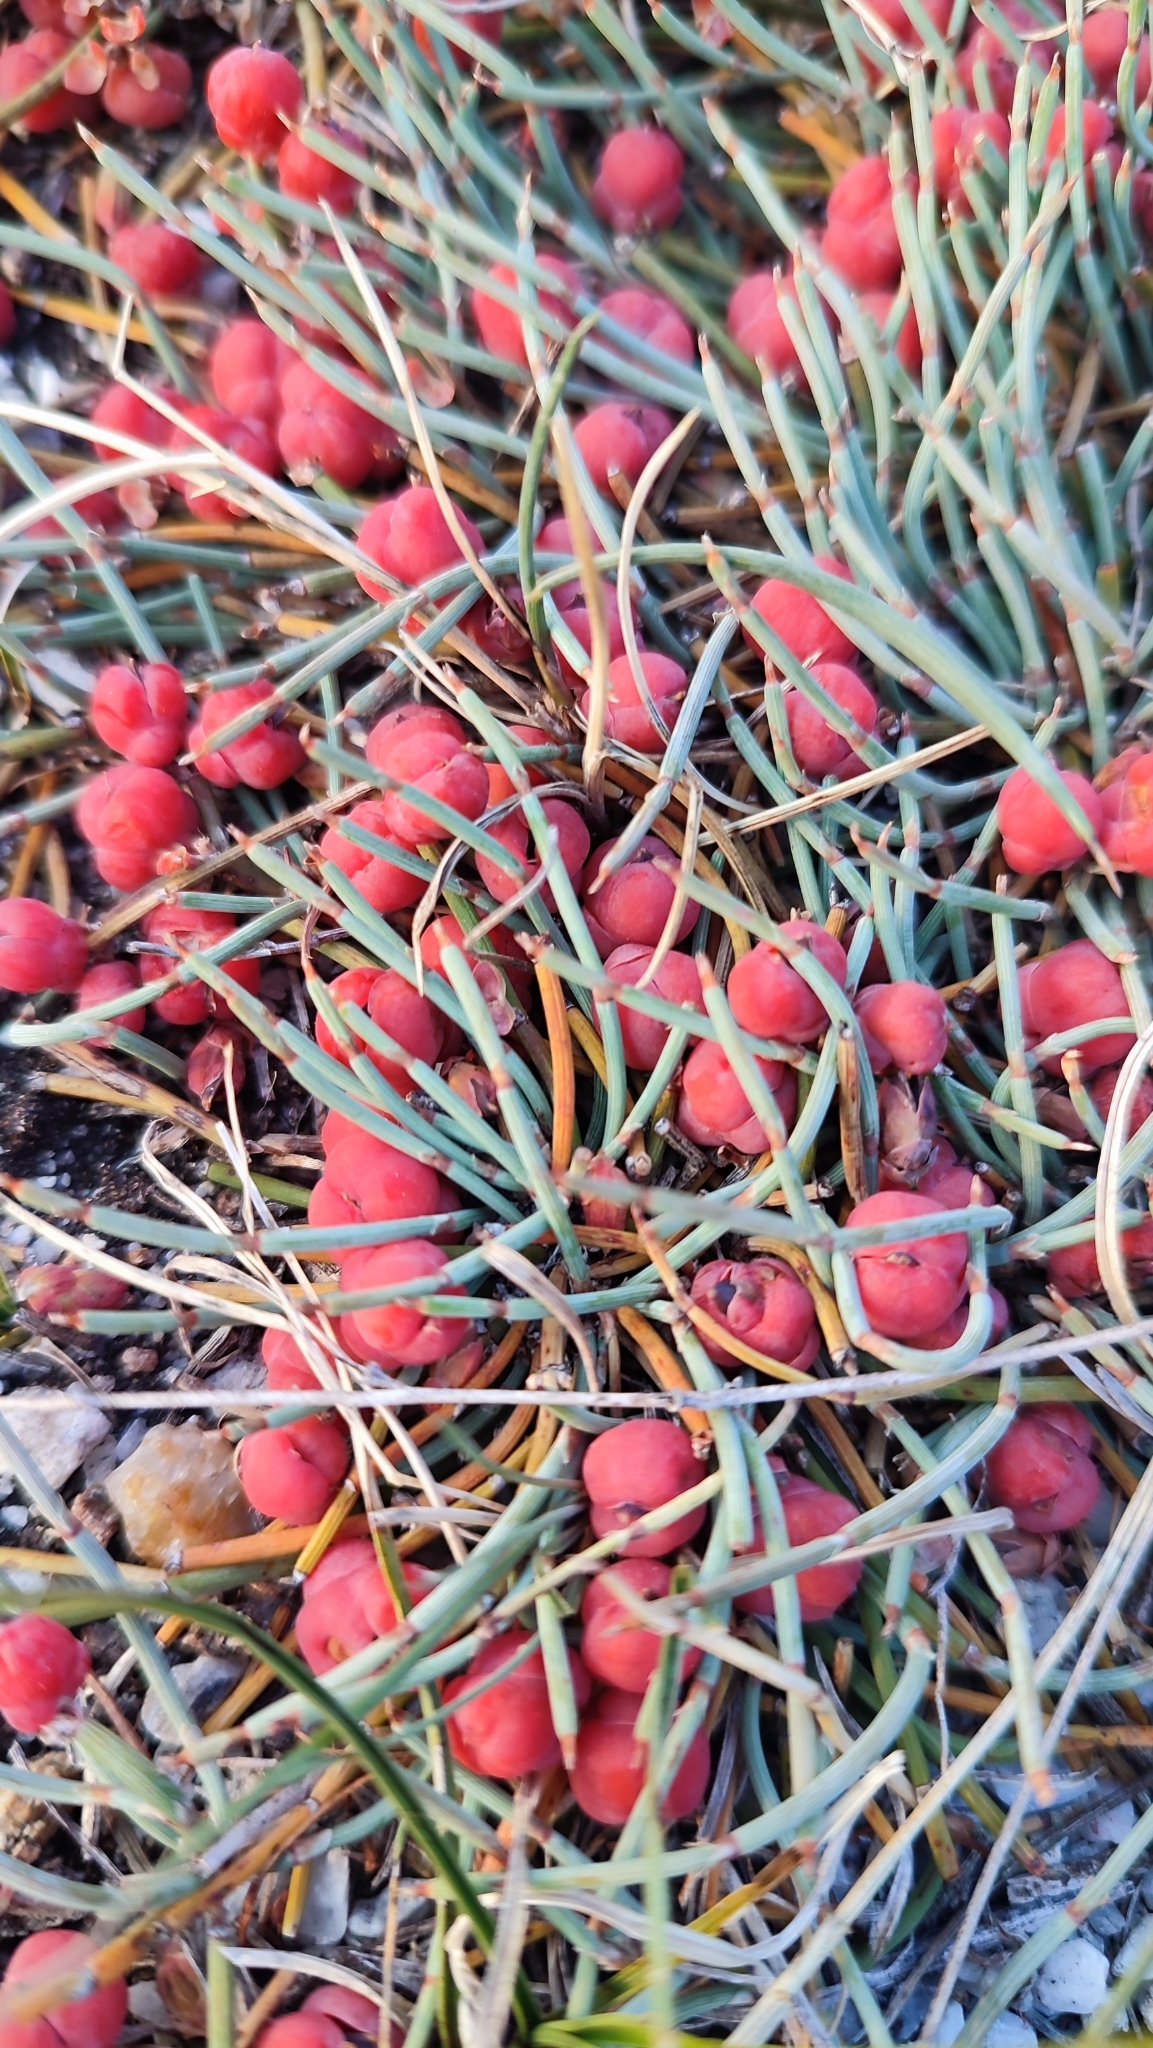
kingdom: Plantae
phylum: Tracheophyta
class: Gnetopsida
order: Ephedrales
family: Ephedraceae
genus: Ephedra
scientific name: Ephedra monosperma
